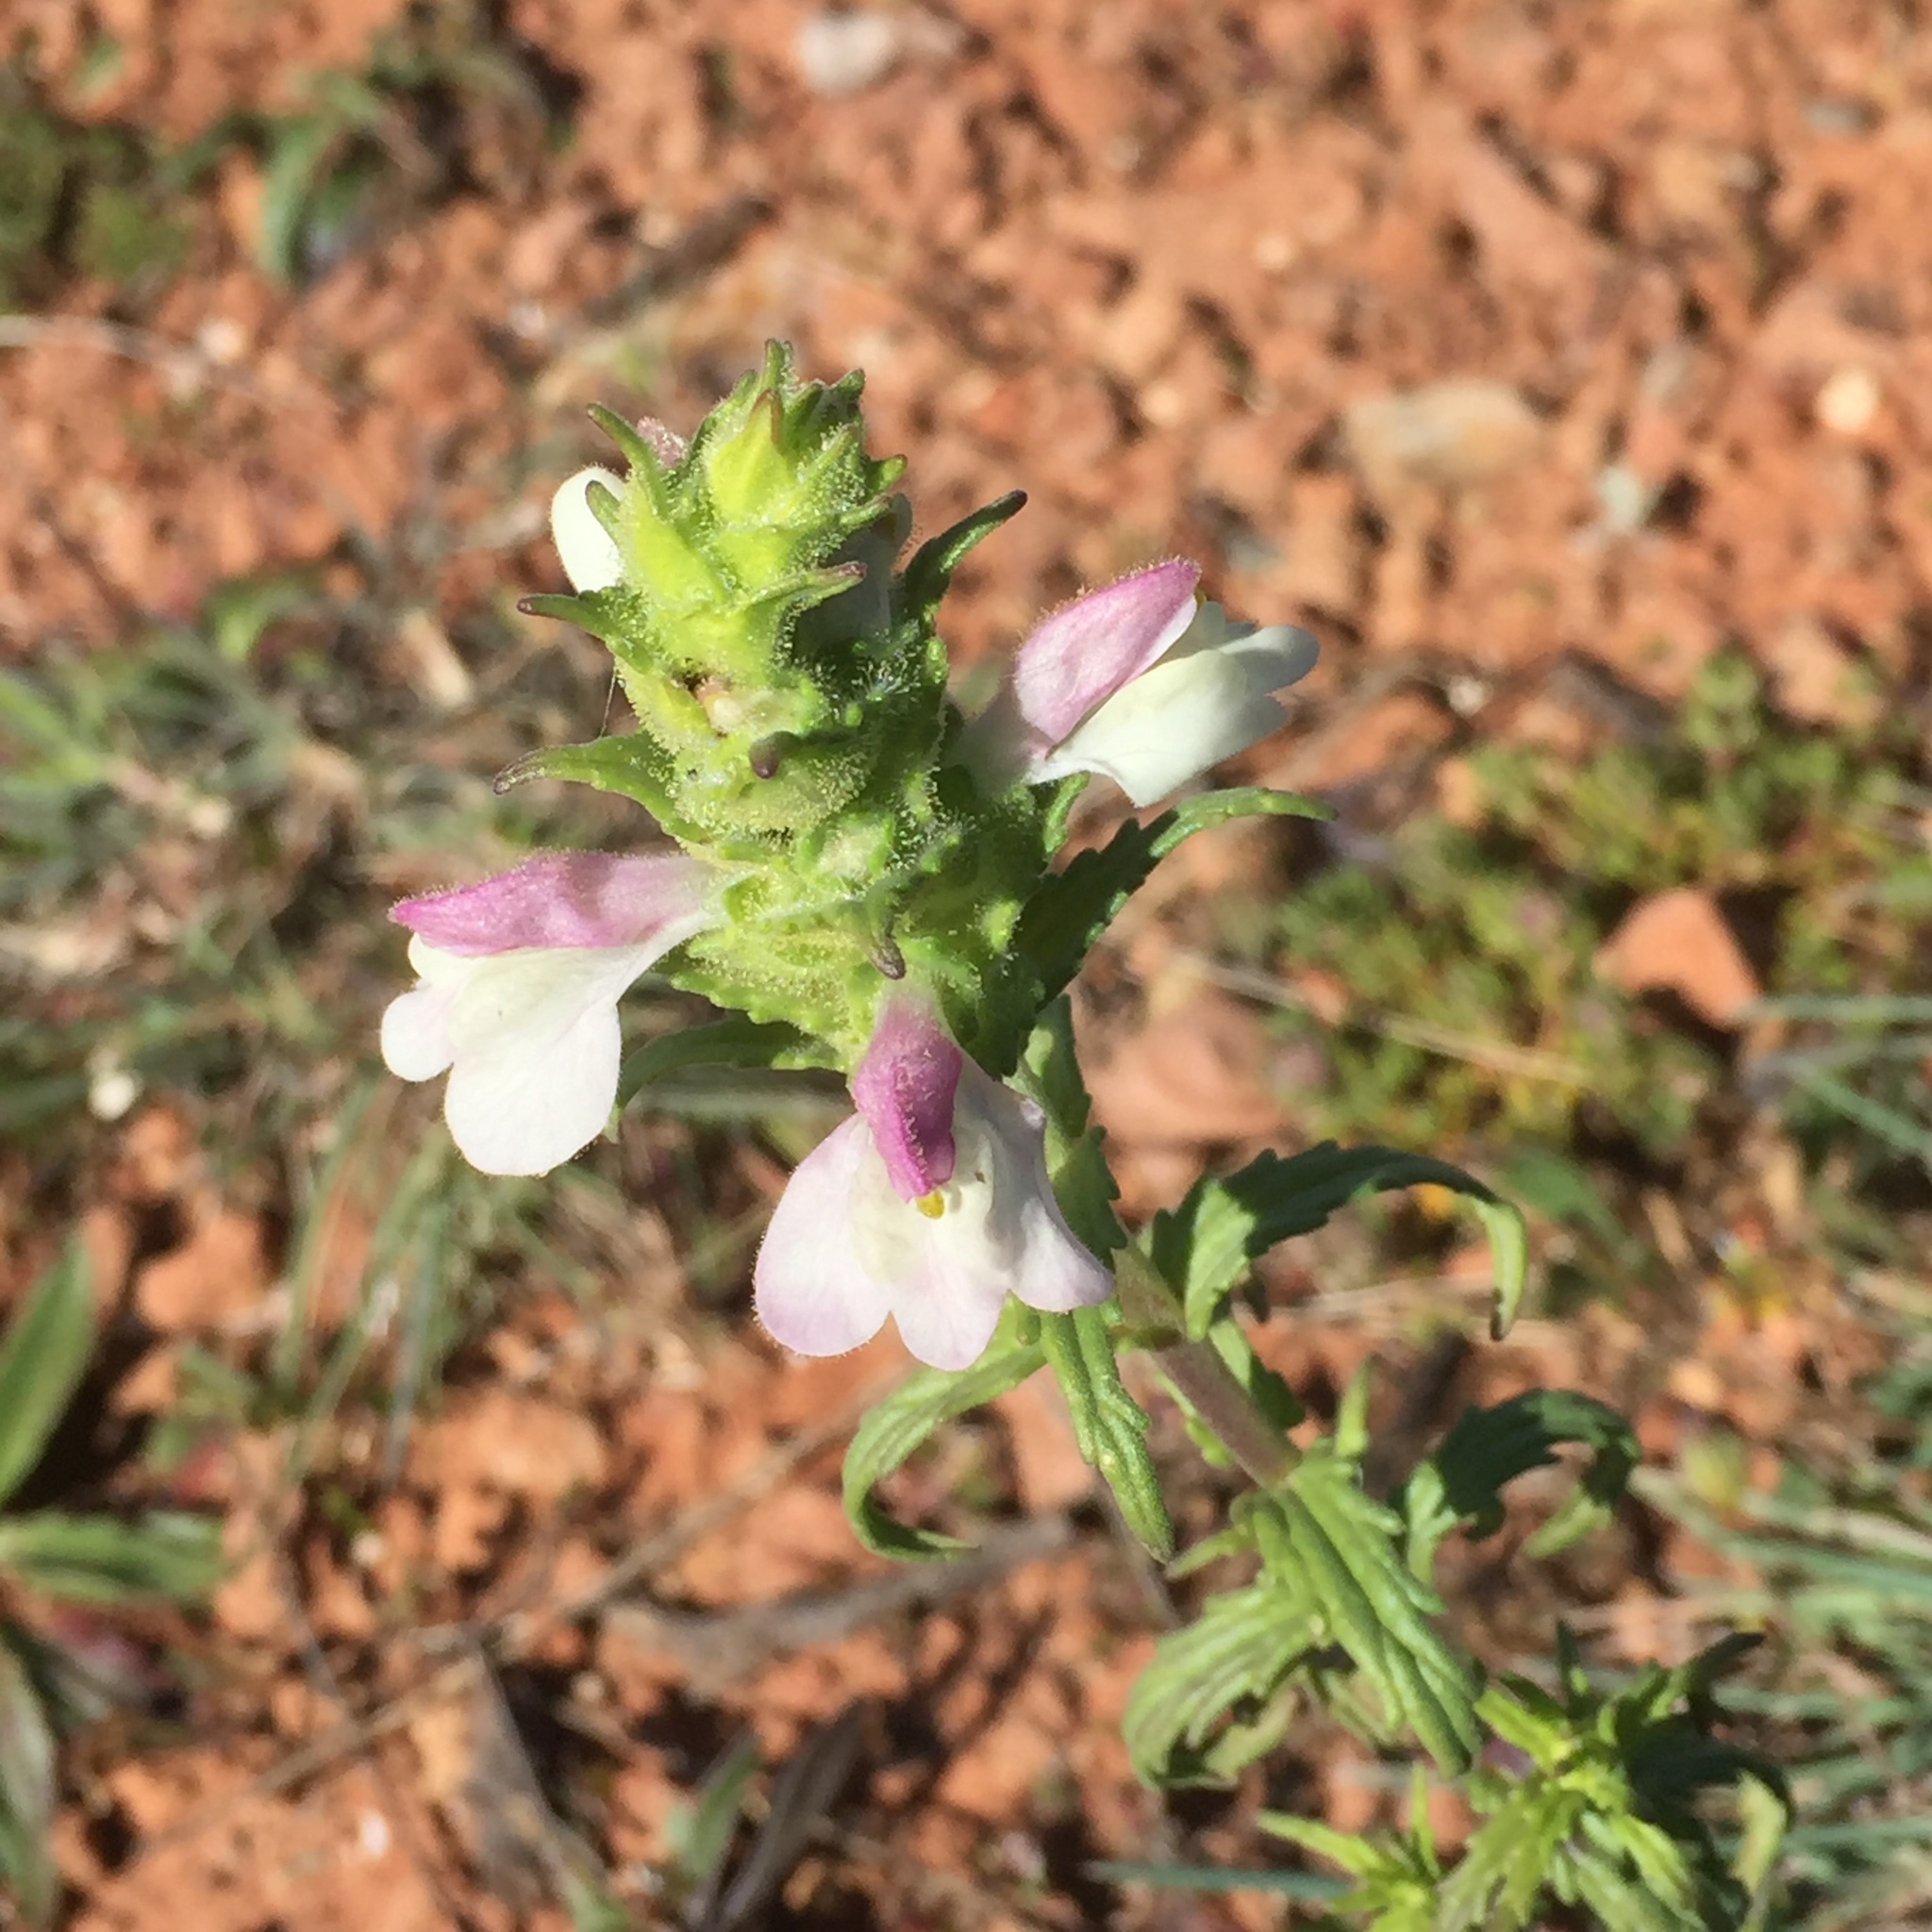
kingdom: Plantae
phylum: Tracheophyta
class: Magnoliopsida
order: Lamiales
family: Orobanchaceae
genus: Bellardia
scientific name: Bellardia trixago
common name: Mediterranean lineseed
